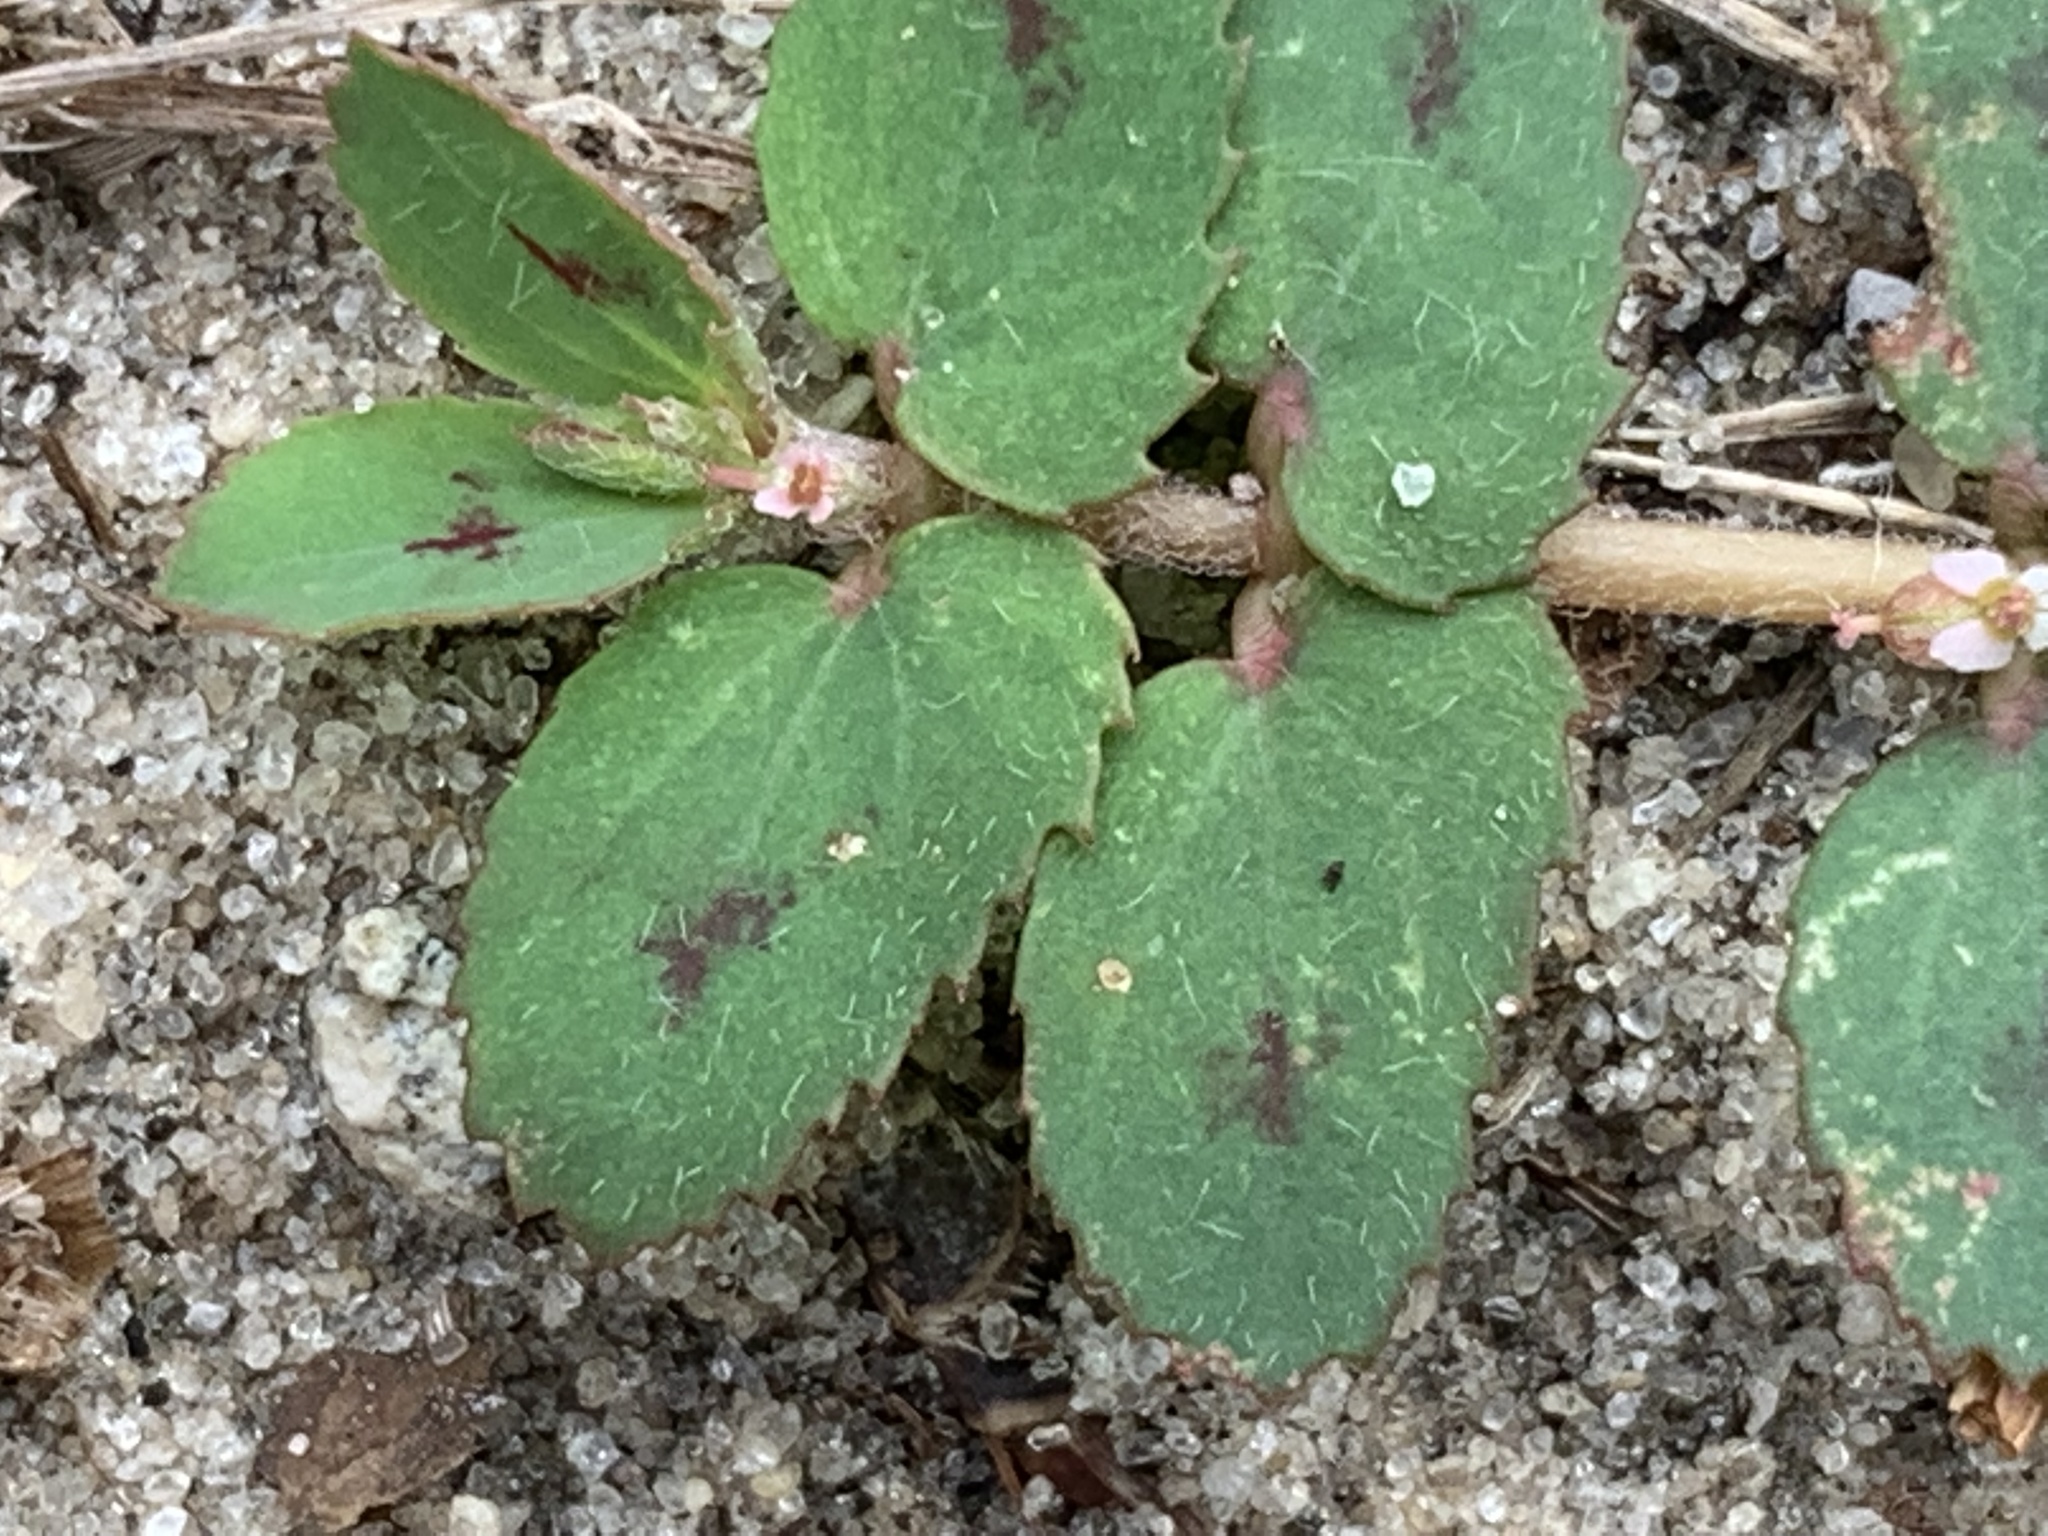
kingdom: Plantae
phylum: Tracheophyta
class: Magnoliopsida
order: Malpighiales
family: Euphorbiaceae
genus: Euphorbia
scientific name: Euphorbia thymifolia
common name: Gulf sandmat
